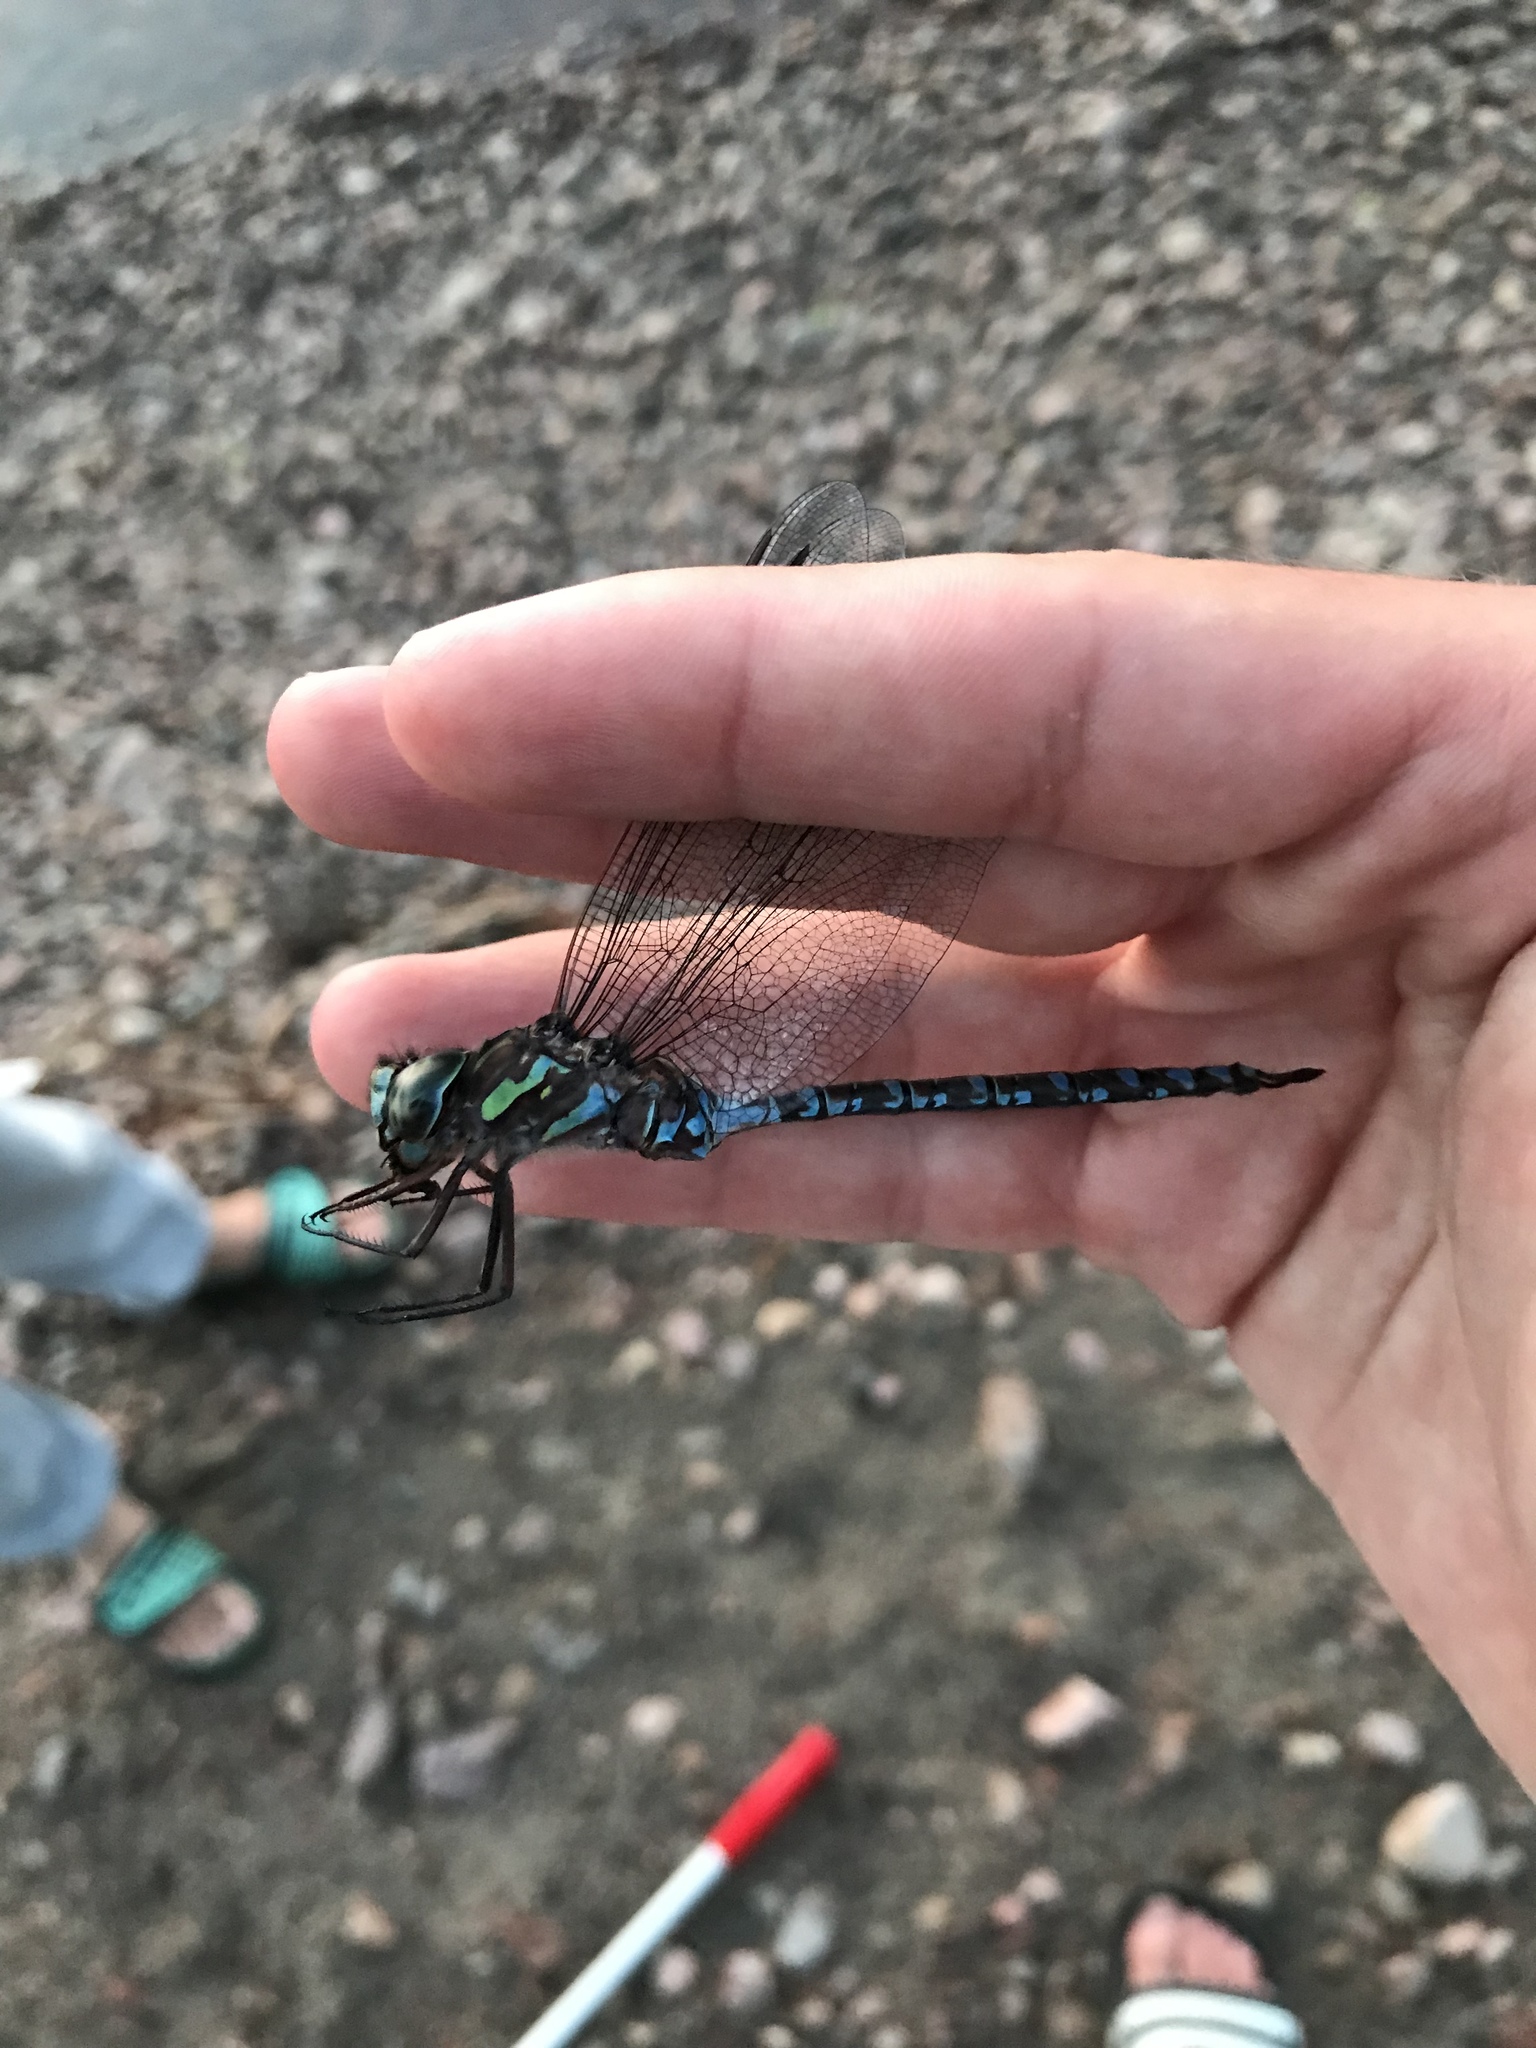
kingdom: Animalia
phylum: Arthropoda
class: Insecta
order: Odonata
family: Aeshnidae
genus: Aeshna
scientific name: Aeshna canadensis
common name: Canada darner
